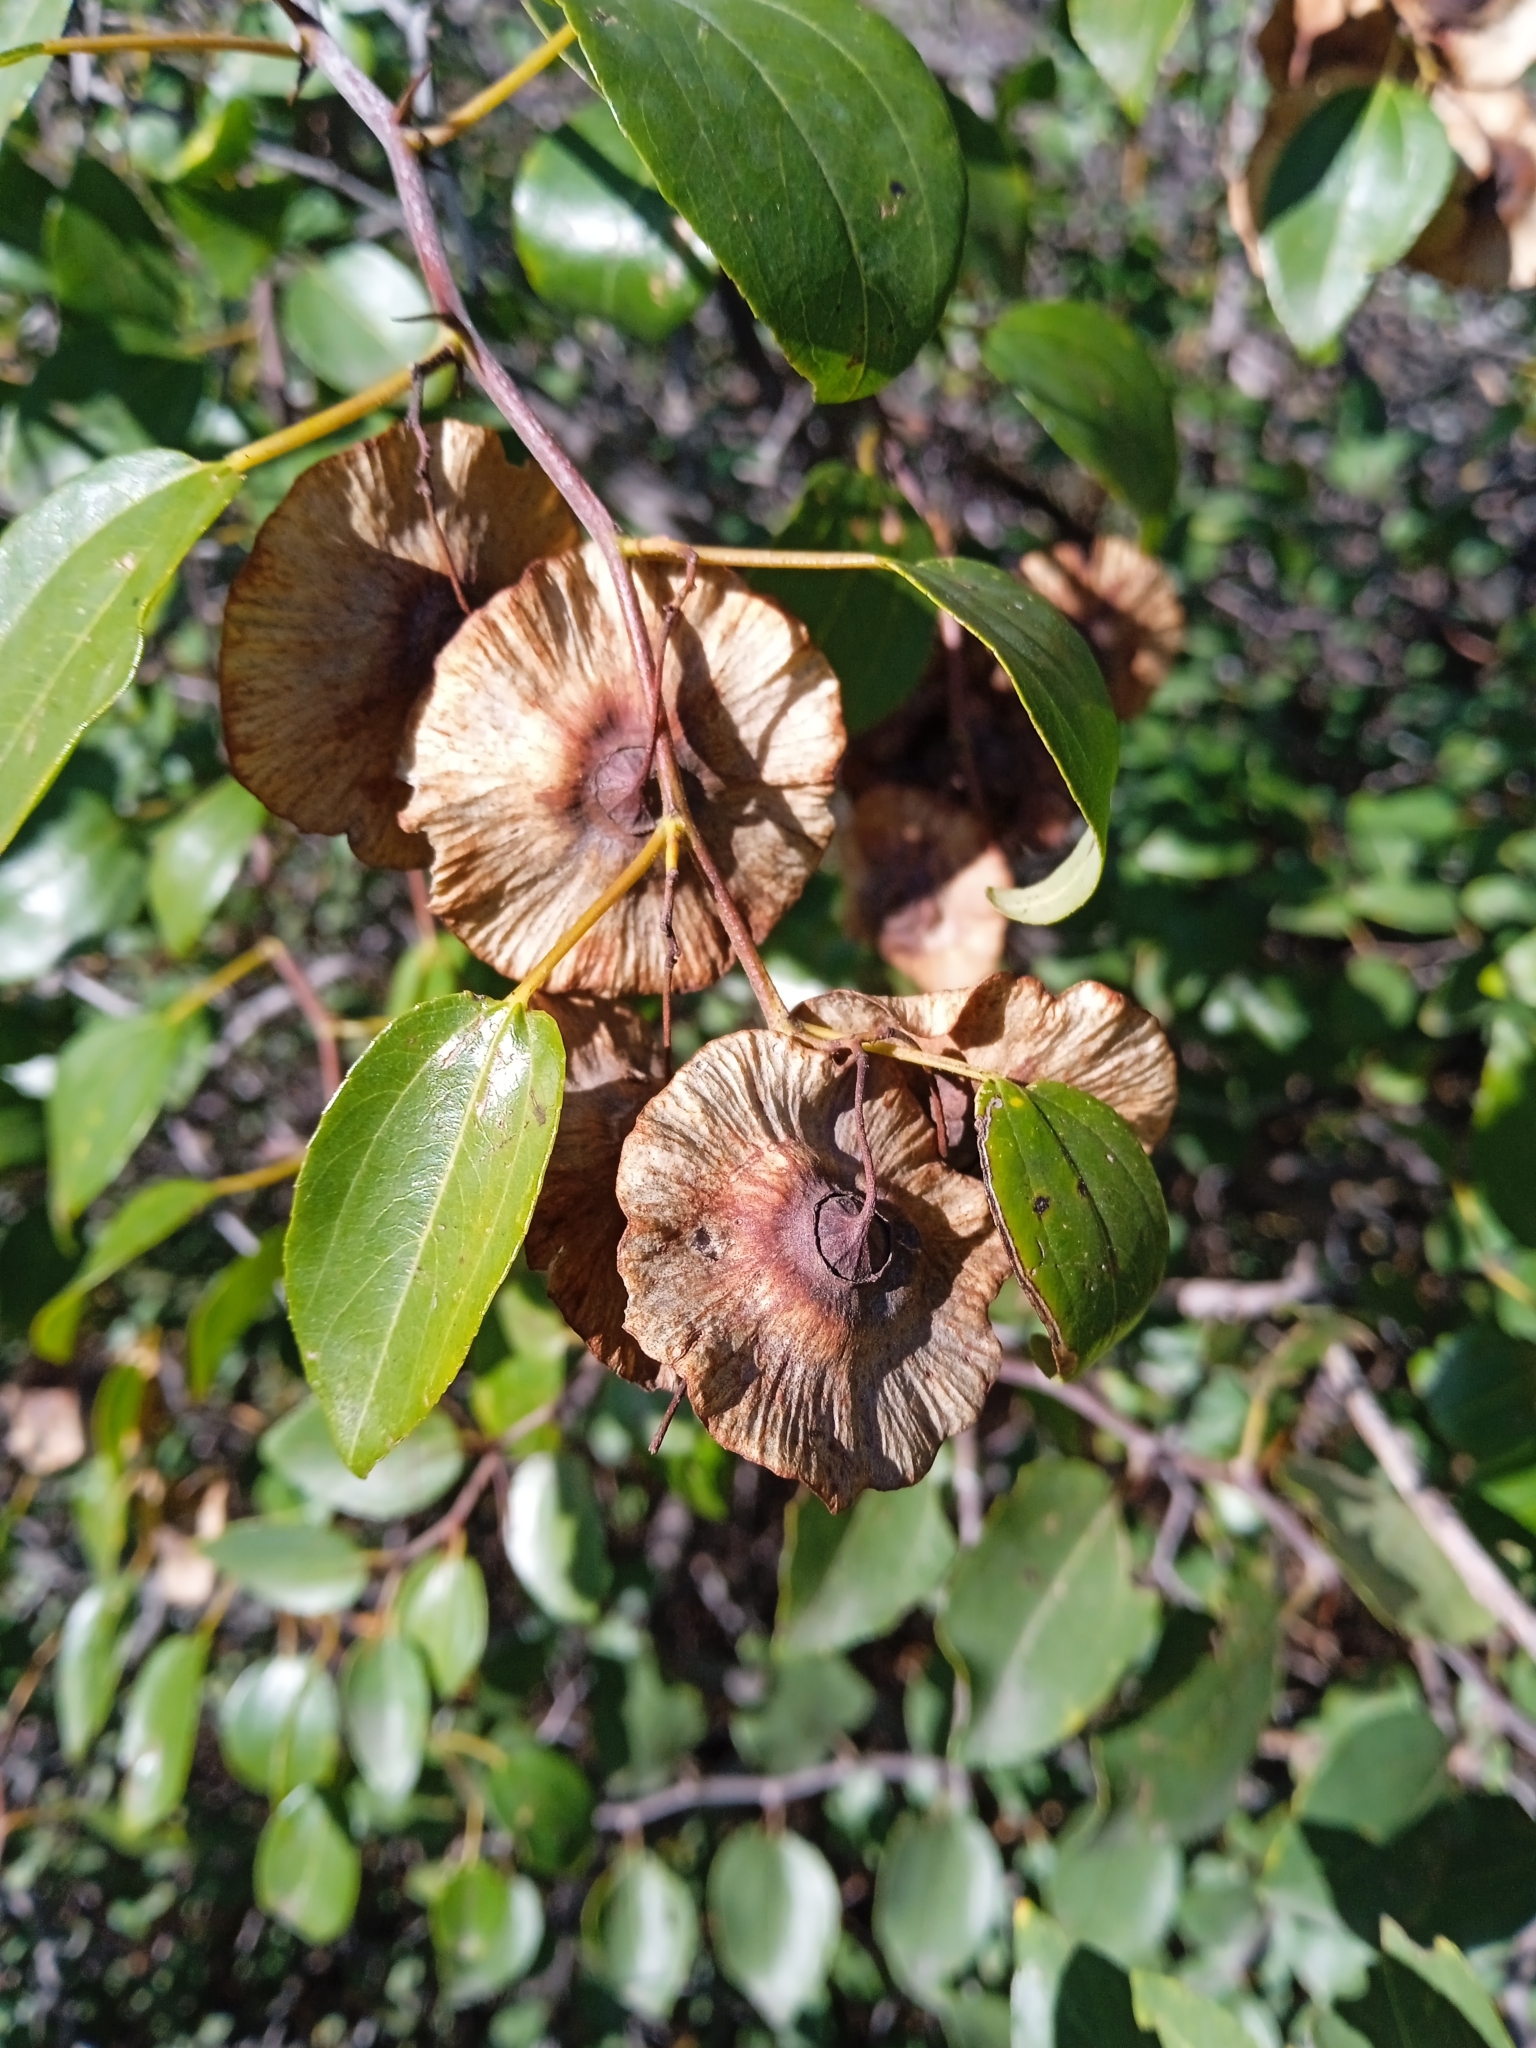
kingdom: Plantae
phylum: Tracheophyta
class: Magnoliopsida
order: Rosales
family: Rhamnaceae
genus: Paliurus
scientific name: Paliurus spina-christi
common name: Jeruselem thorn
